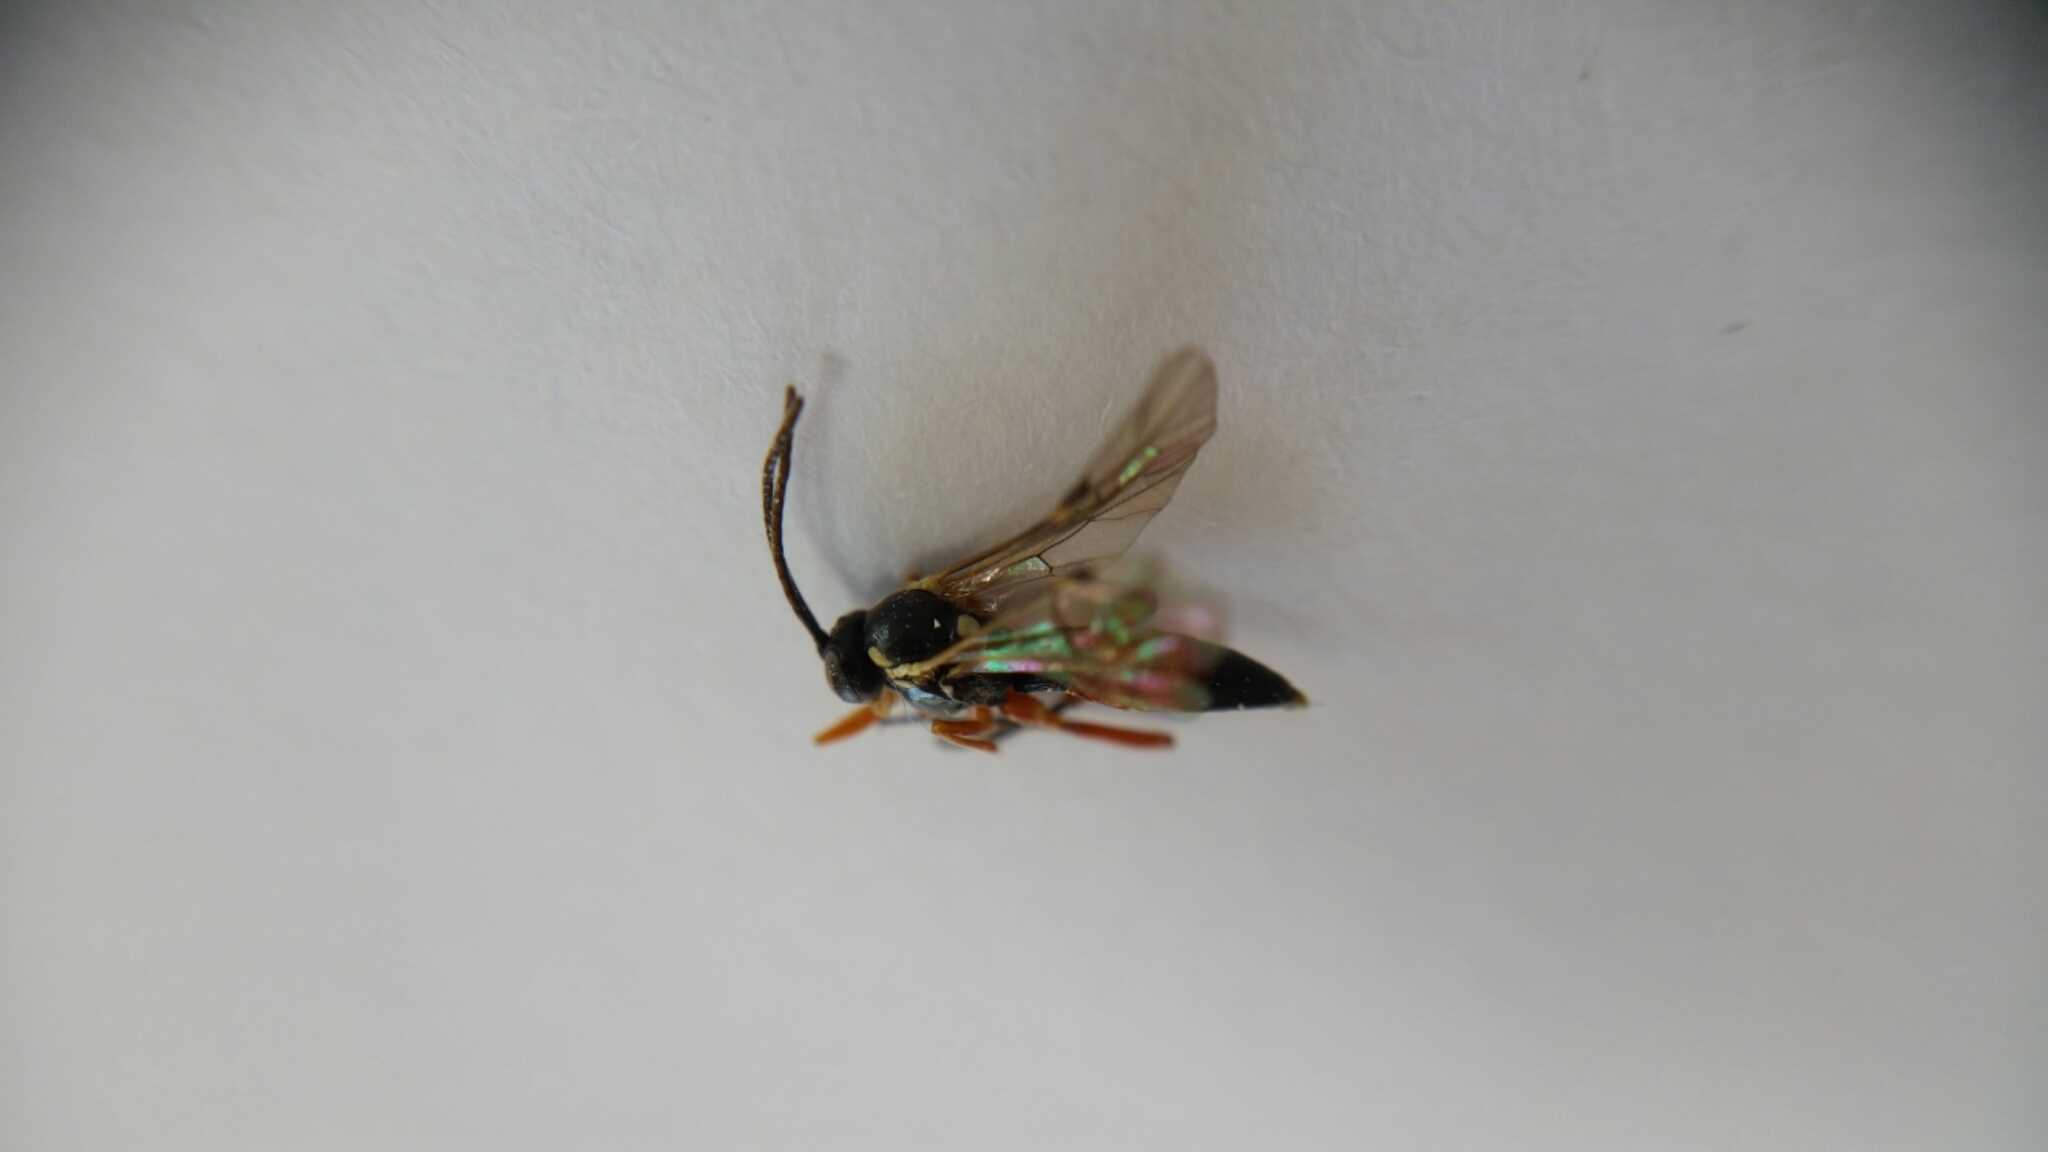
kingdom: Animalia
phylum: Arthropoda
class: Insecta
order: Hymenoptera
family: Ichneumonidae
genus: Diplazon
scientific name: Diplazon laetatorius
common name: Parasitoid wasp
